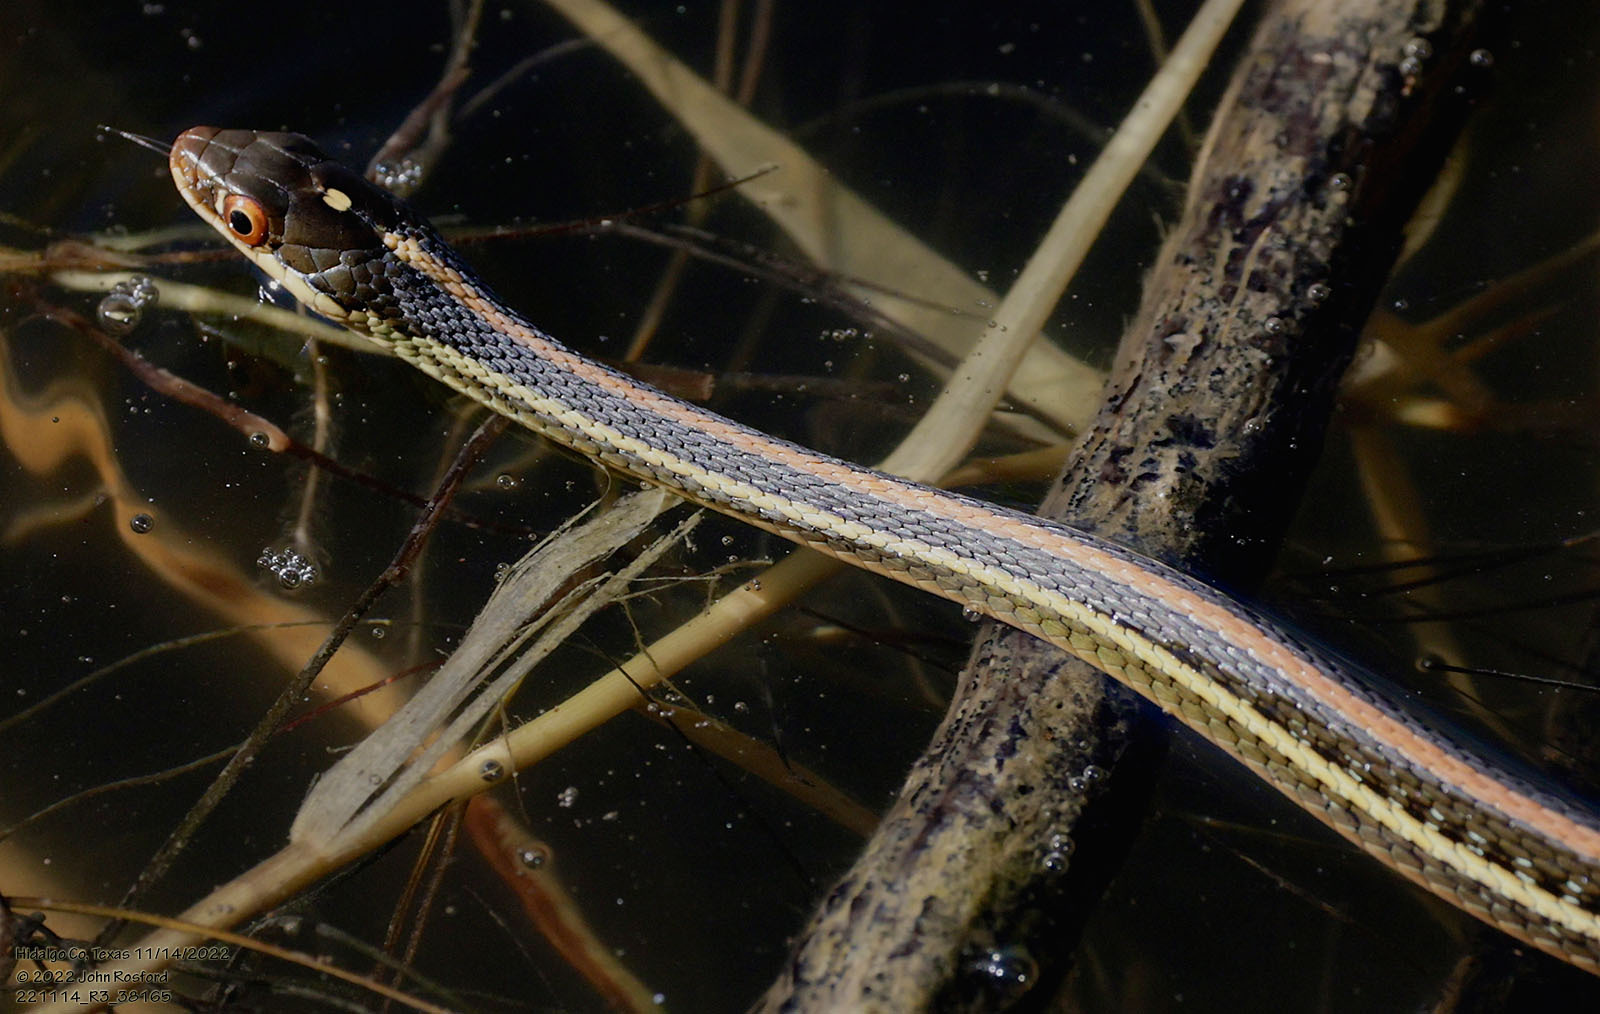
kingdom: Animalia
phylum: Chordata
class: Squamata
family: Colubridae
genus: Thamnophis
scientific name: Thamnophis proximus
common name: Western ribbon snake
